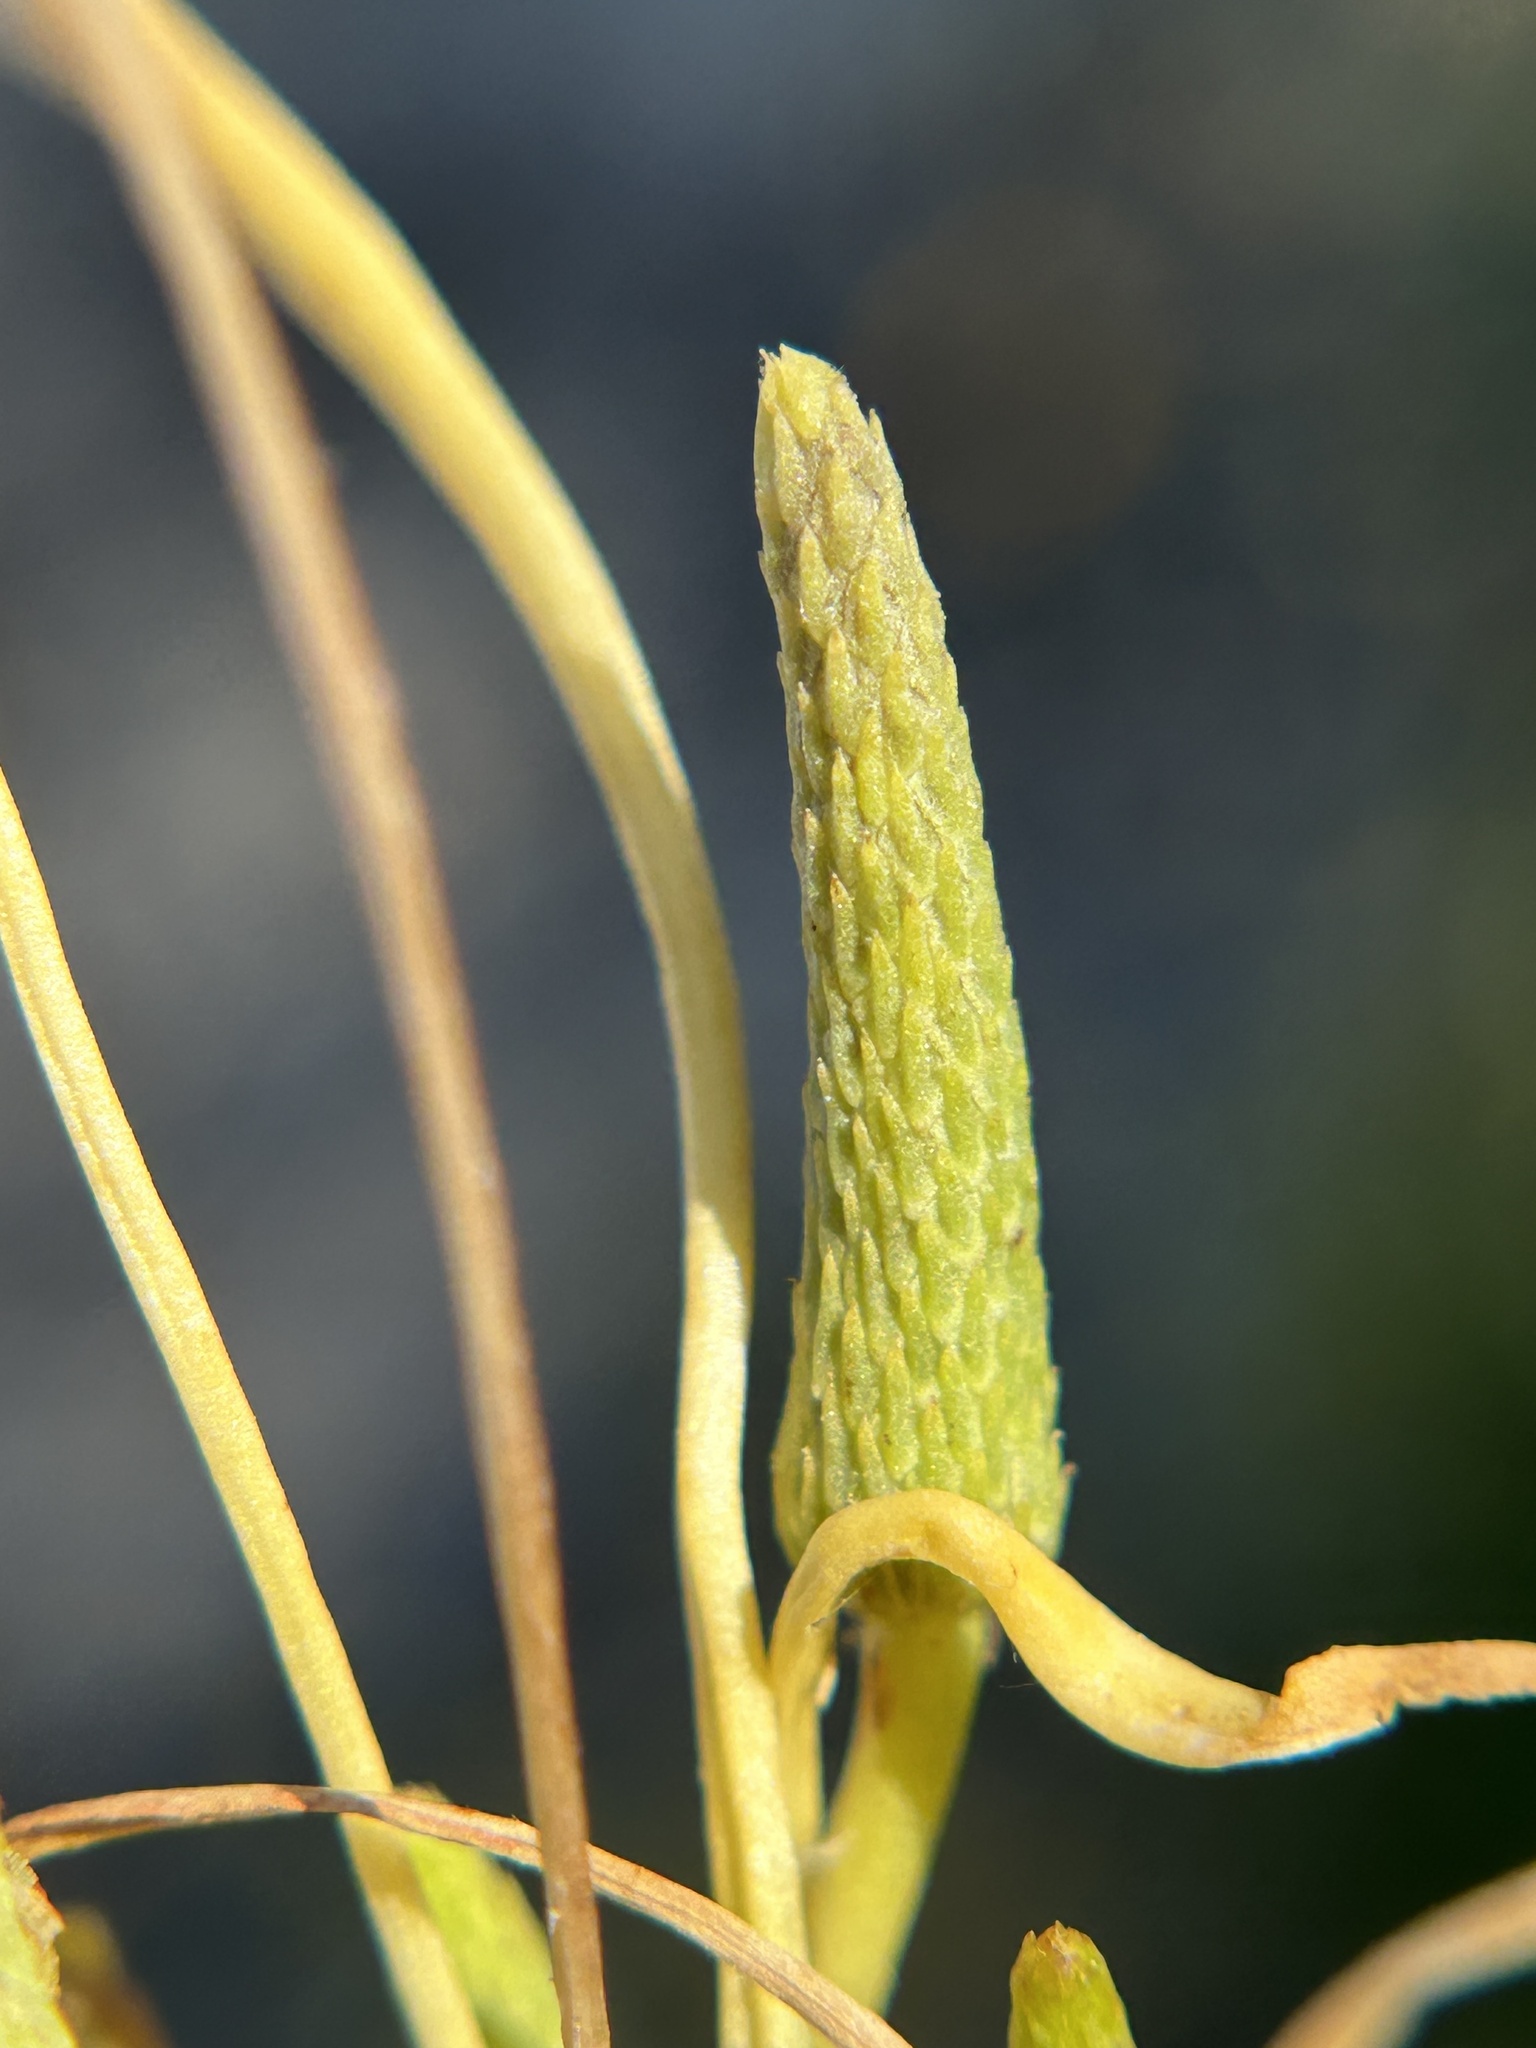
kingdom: Plantae
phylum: Tracheophyta
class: Magnoliopsida
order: Ranunculales
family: Ranunculaceae
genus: Myosurus
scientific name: Myosurus minimus
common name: Mousetail
